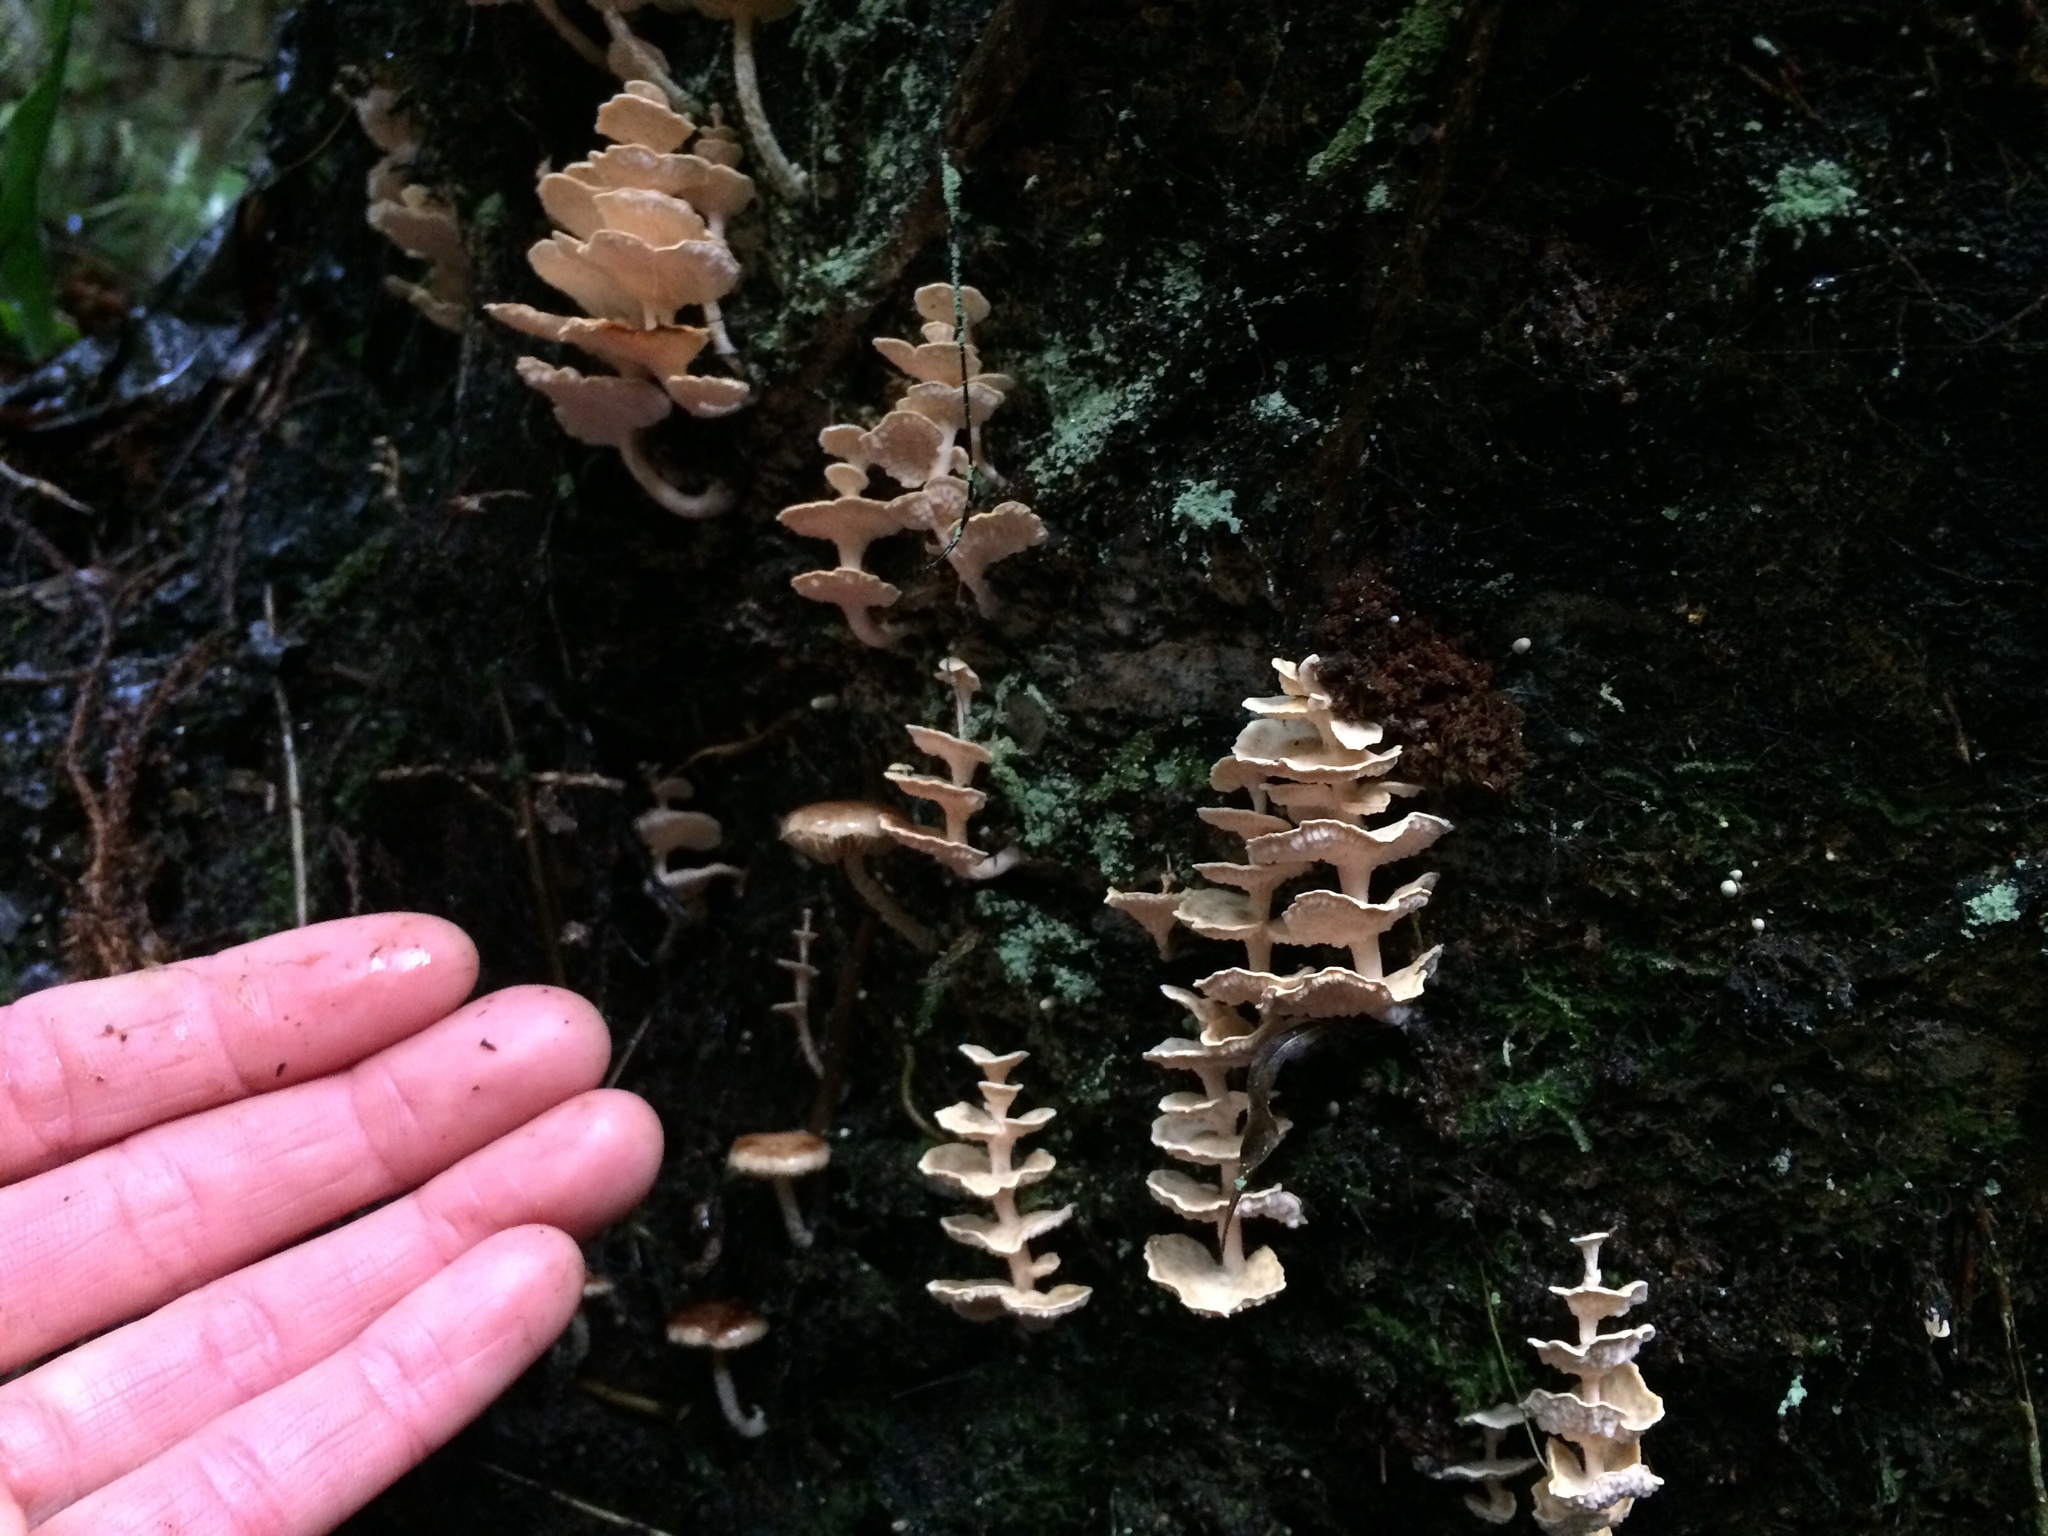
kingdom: Fungi
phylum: Basidiomycota
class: Agaricomycetes
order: Amylocorticiales
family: Amylocorticiaceae
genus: Podoserpula
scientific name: Podoserpula pusio
